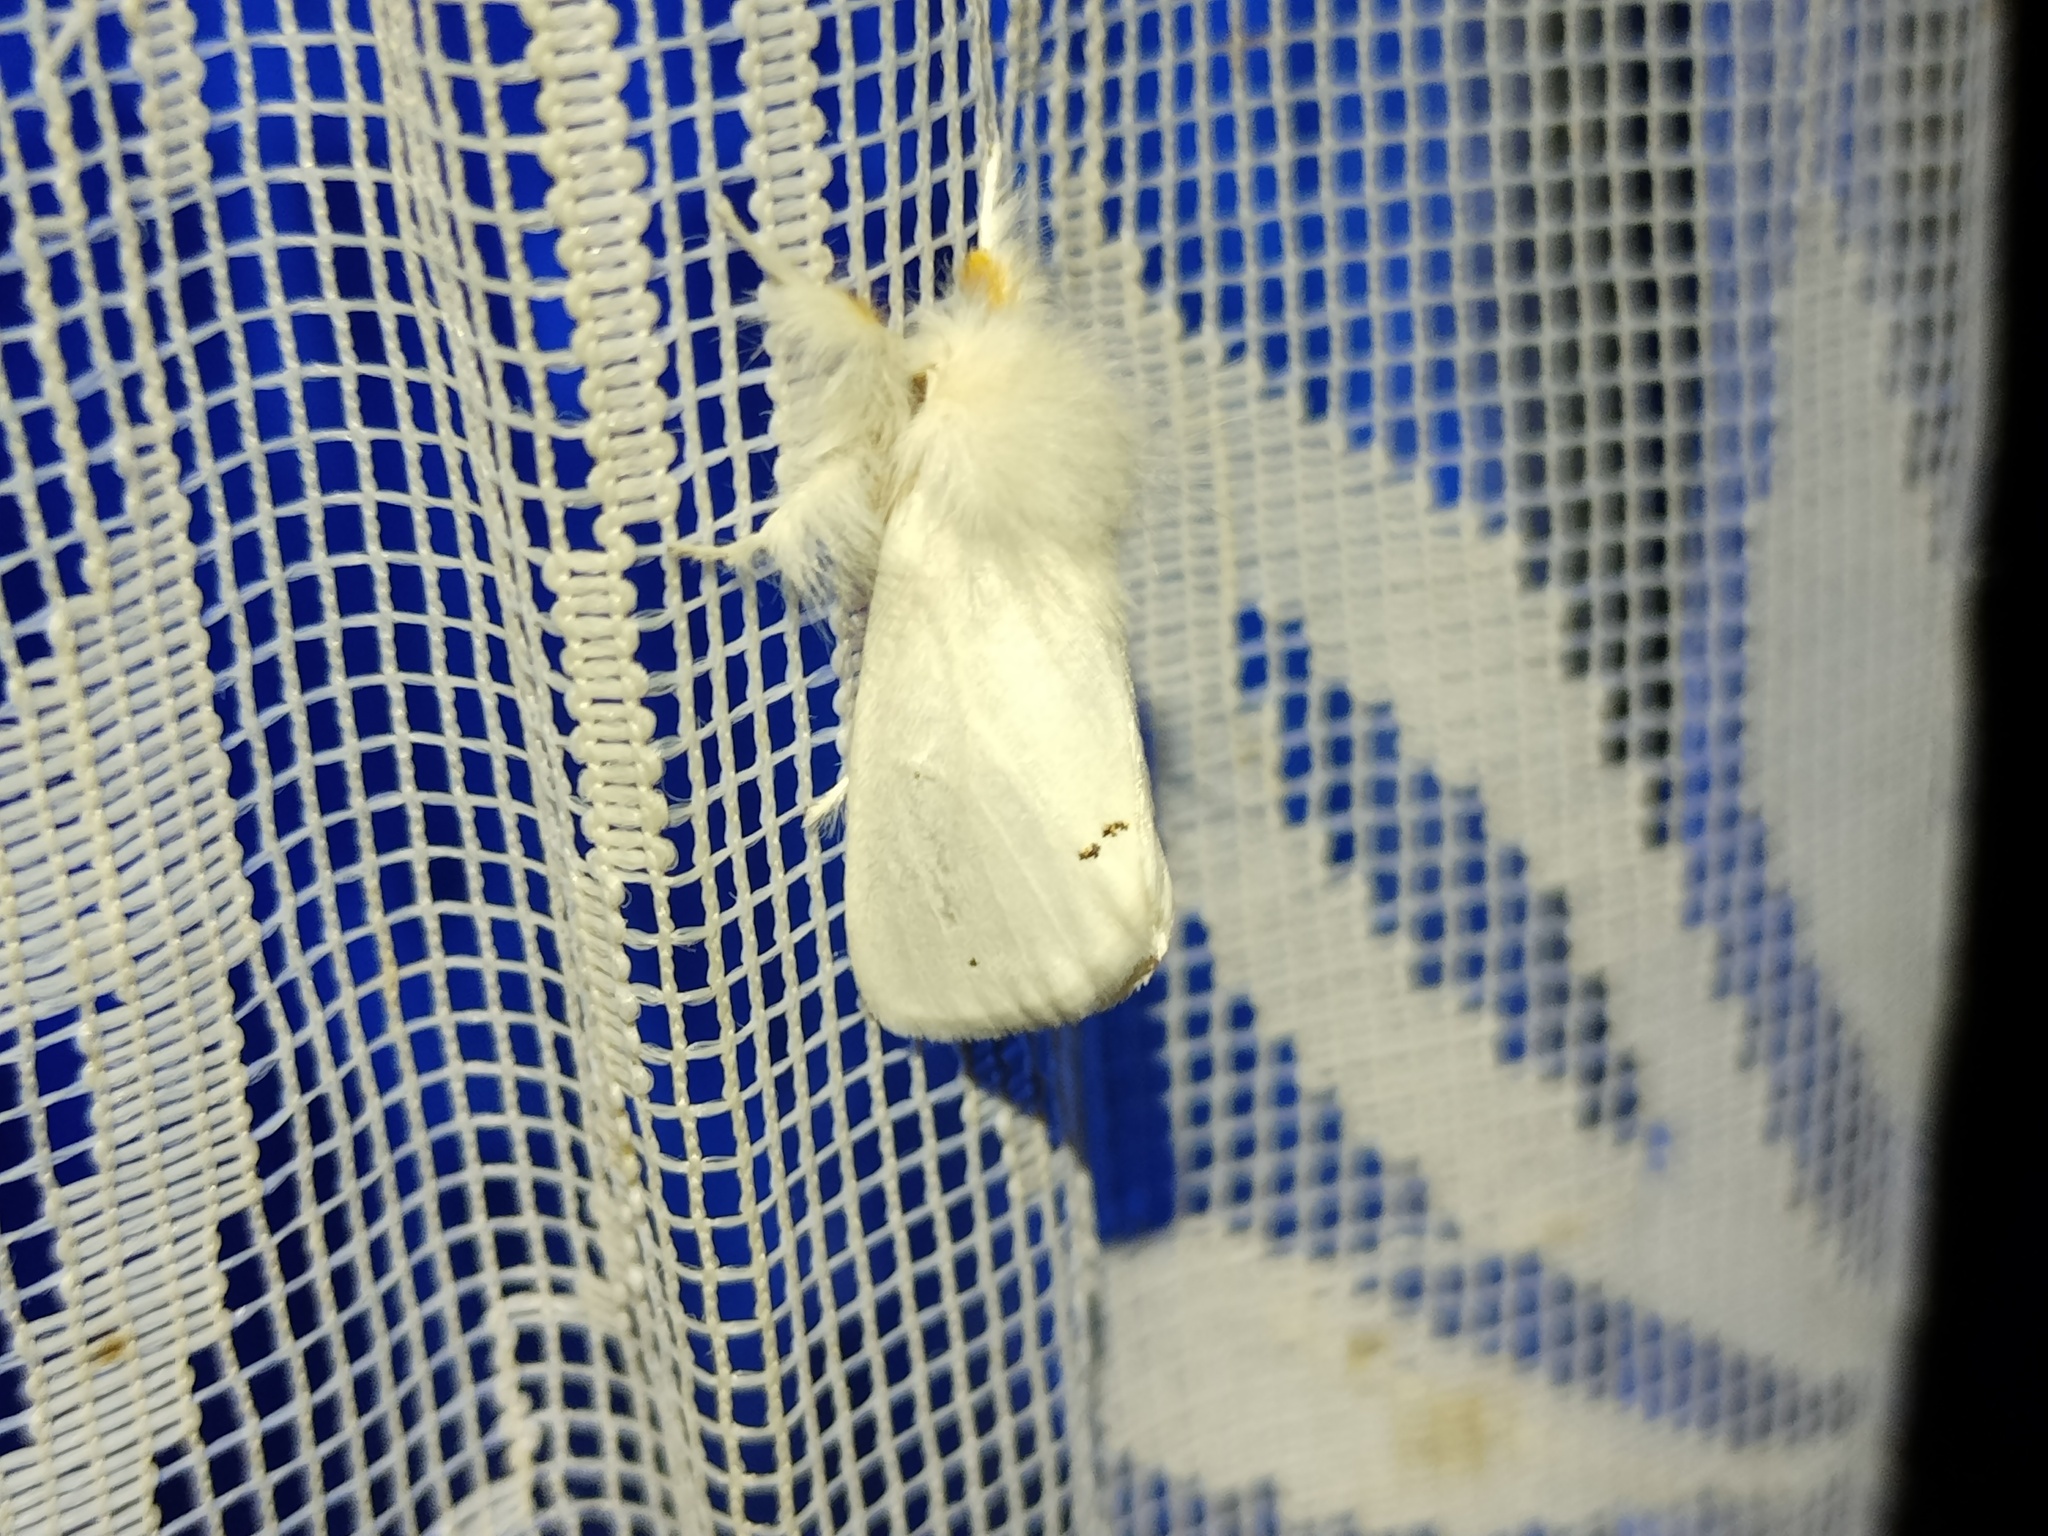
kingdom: Animalia
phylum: Arthropoda
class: Insecta
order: Lepidoptera
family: Erebidae
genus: Euproctis
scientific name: Euproctis chrysorrhoea
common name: Brown-tail
